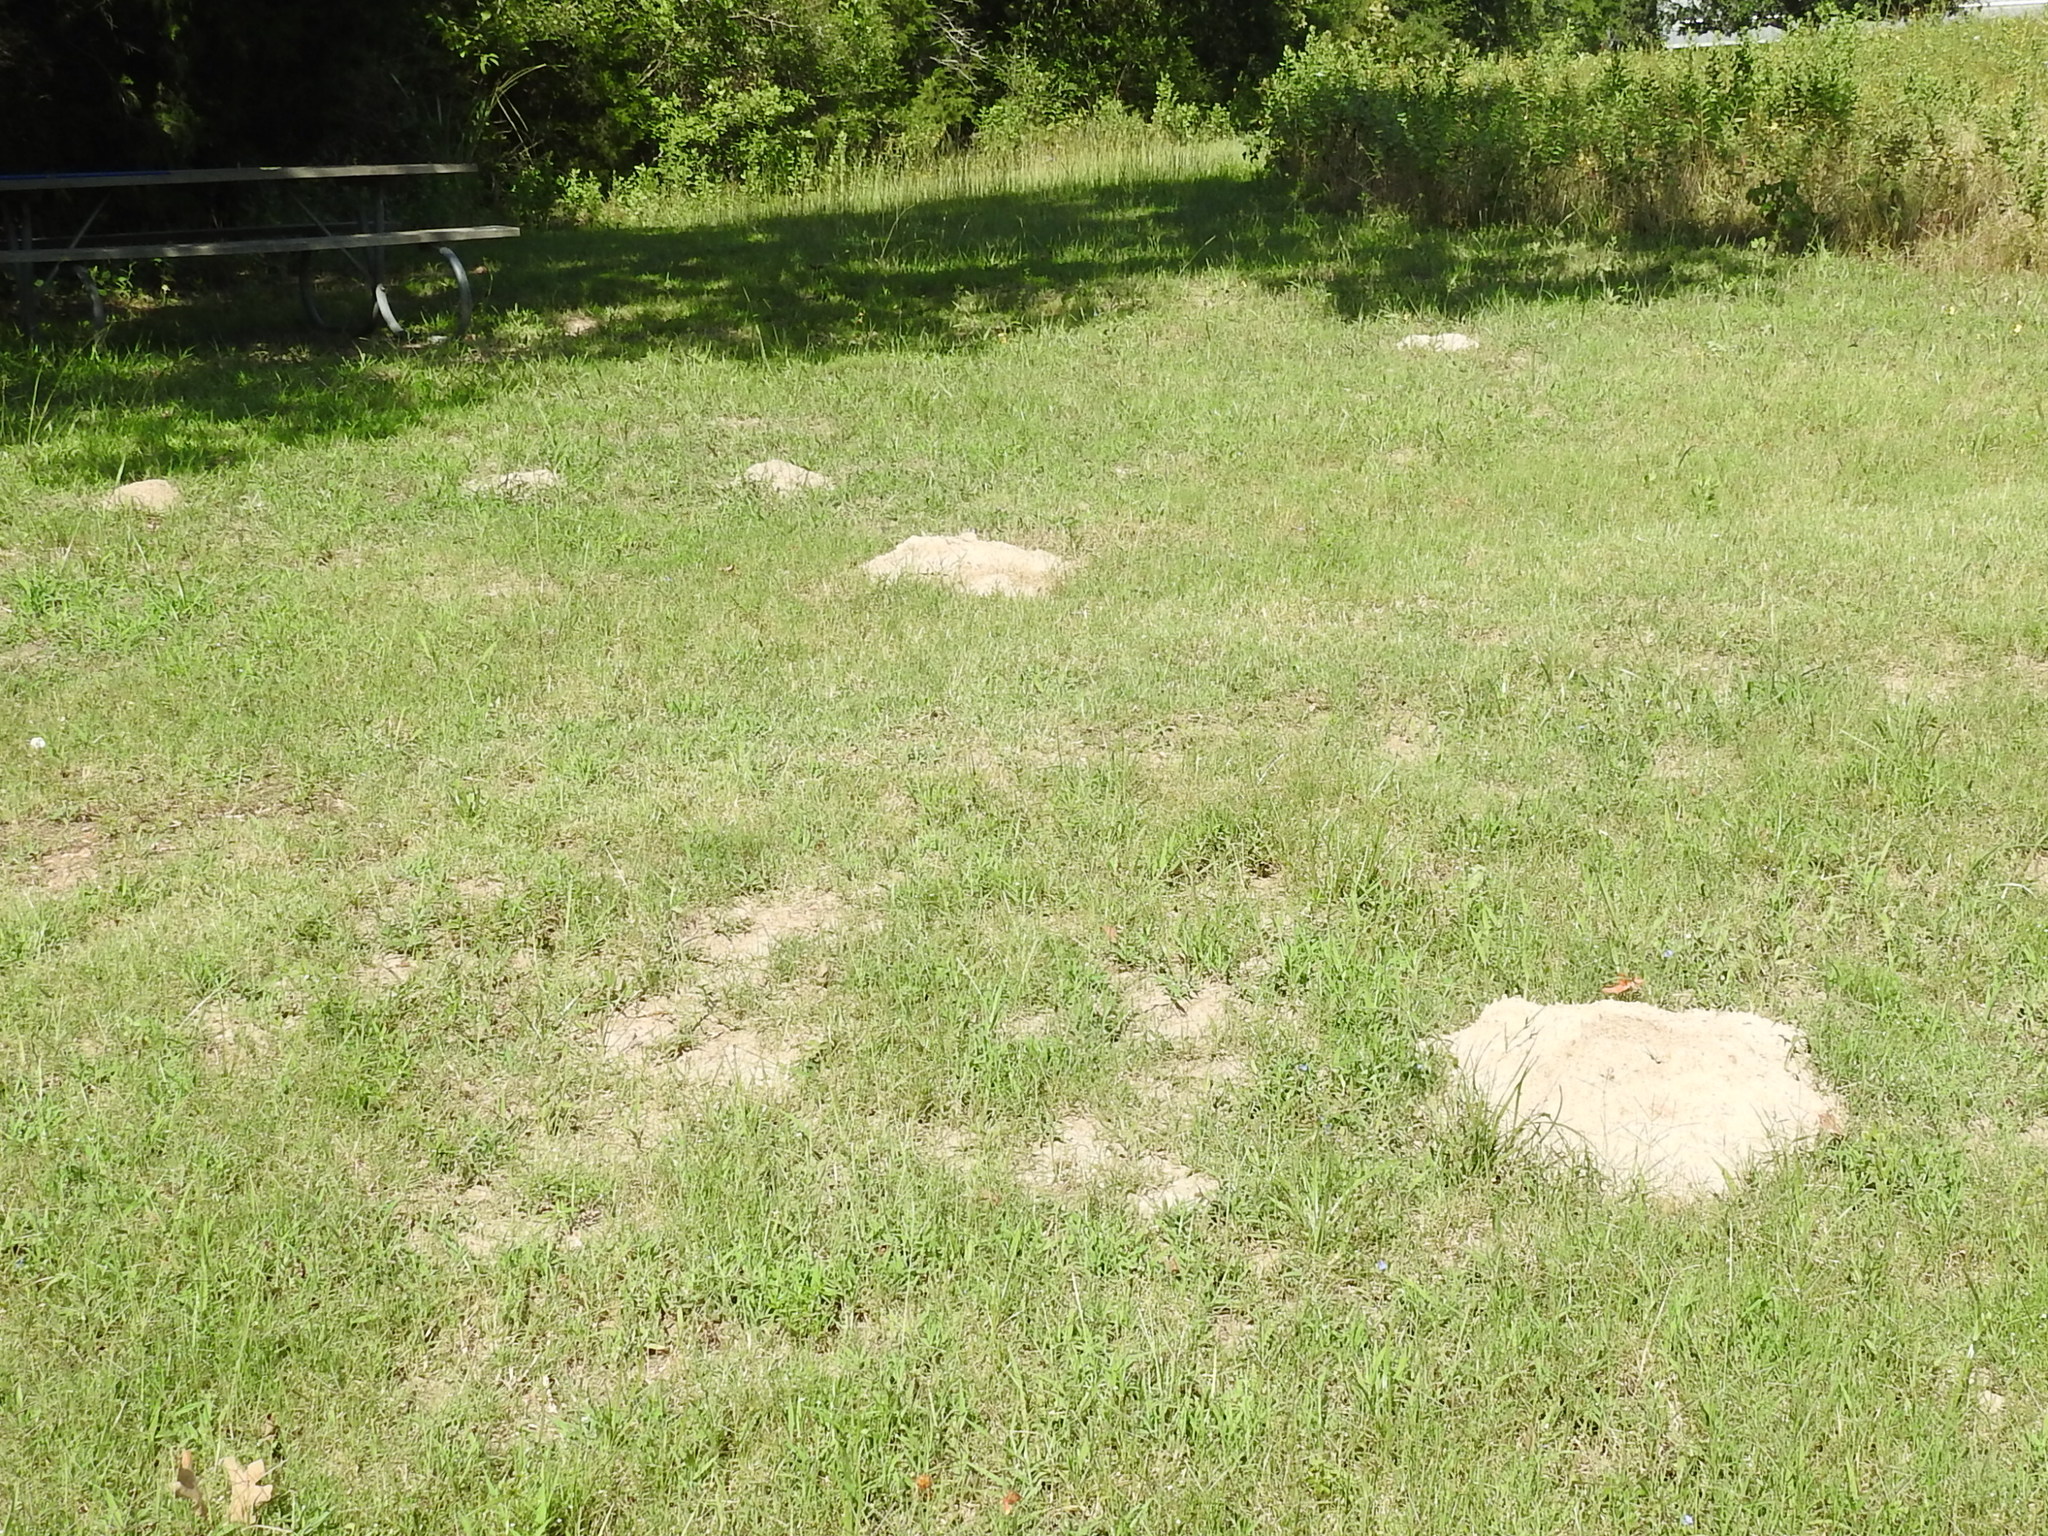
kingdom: Animalia
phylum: Chordata
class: Mammalia
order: Rodentia
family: Geomyidae
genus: Geomys
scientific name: Geomys breviceps
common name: Baird's pocket gopher
